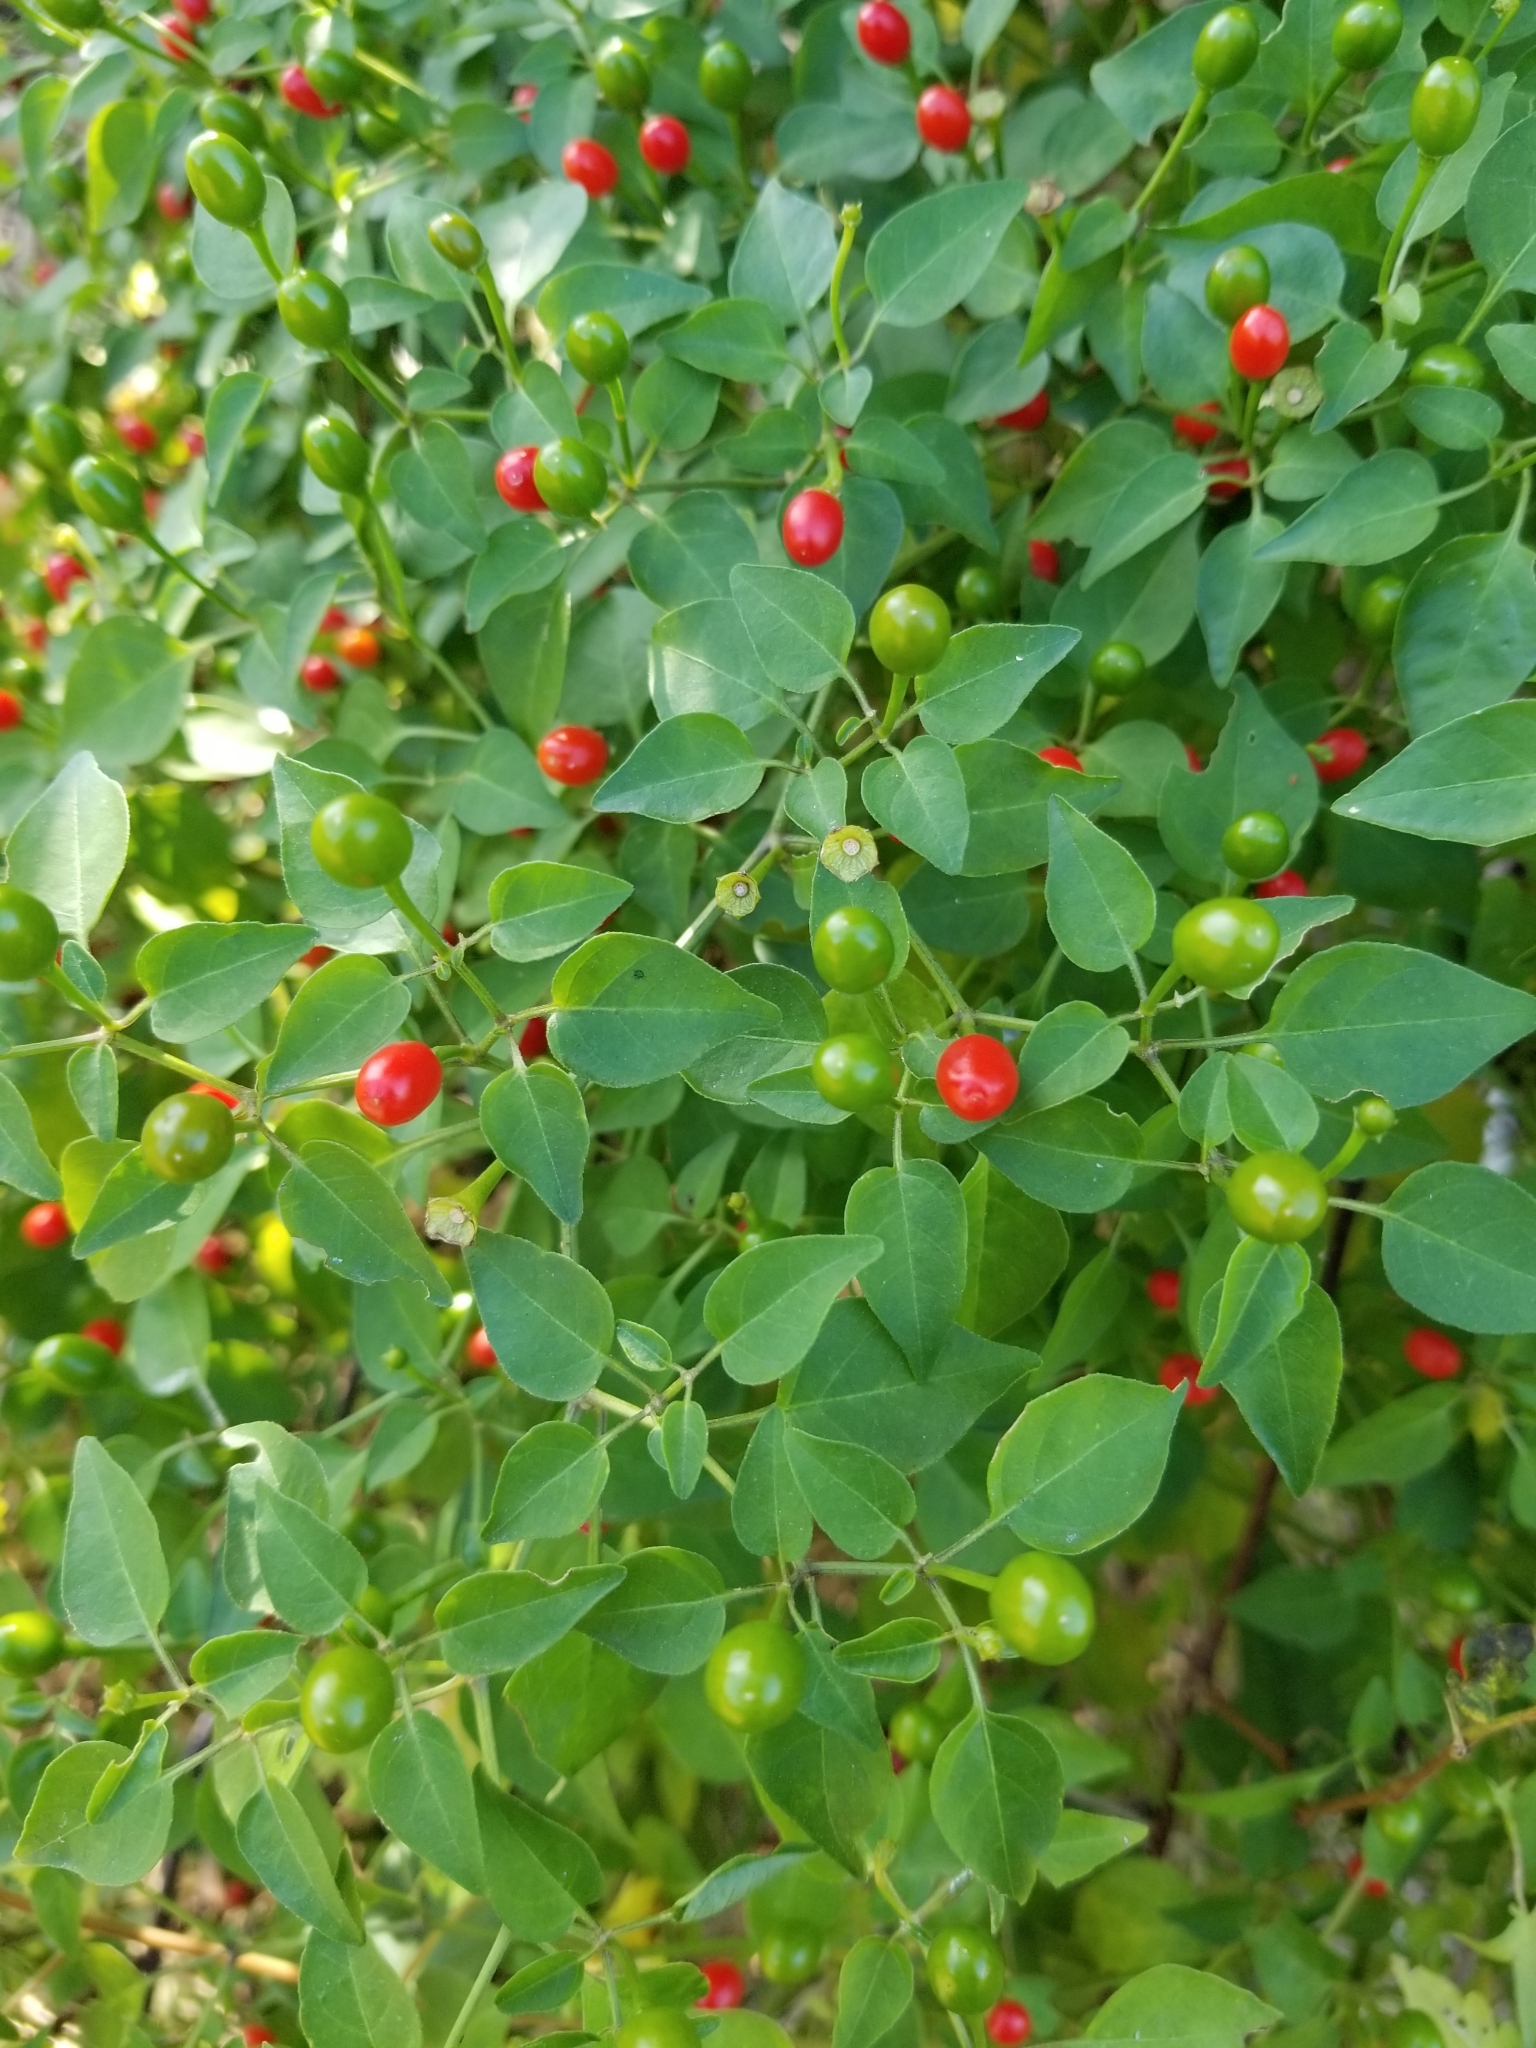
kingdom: Plantae
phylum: Tracheophyta
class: Magnoliopsida
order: Solanales
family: Solanaceae
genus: Capsicum
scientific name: Capsicum annuum
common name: Sweet pepper
